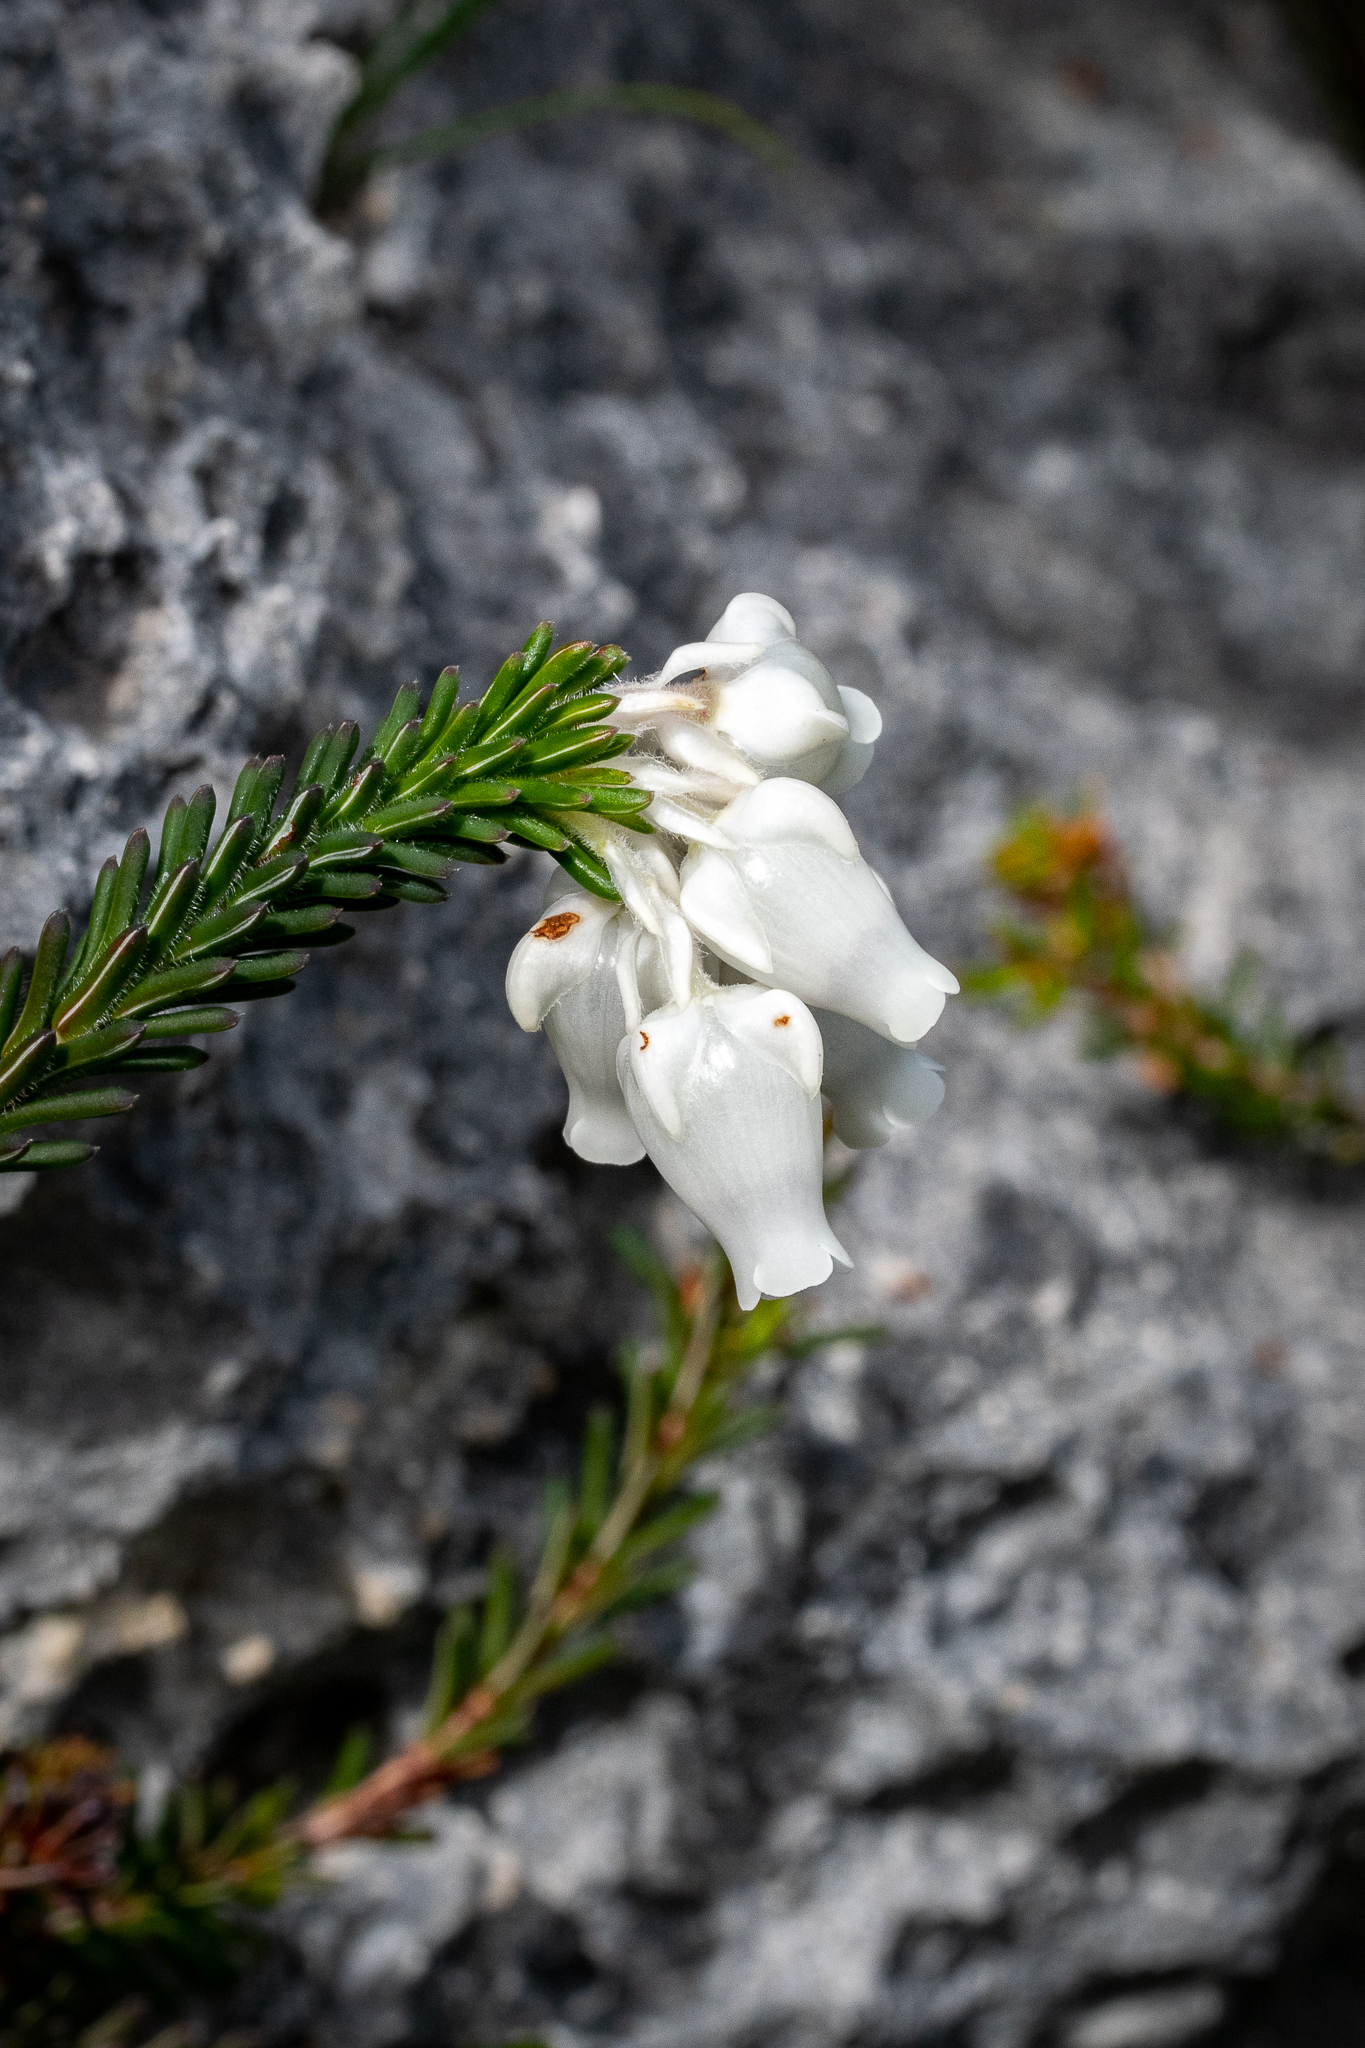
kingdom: Plantae
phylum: Tracheophyta
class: Magnoliopsida
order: Ericales
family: Ericaceae
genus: Erica
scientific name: Erica calcareophila
